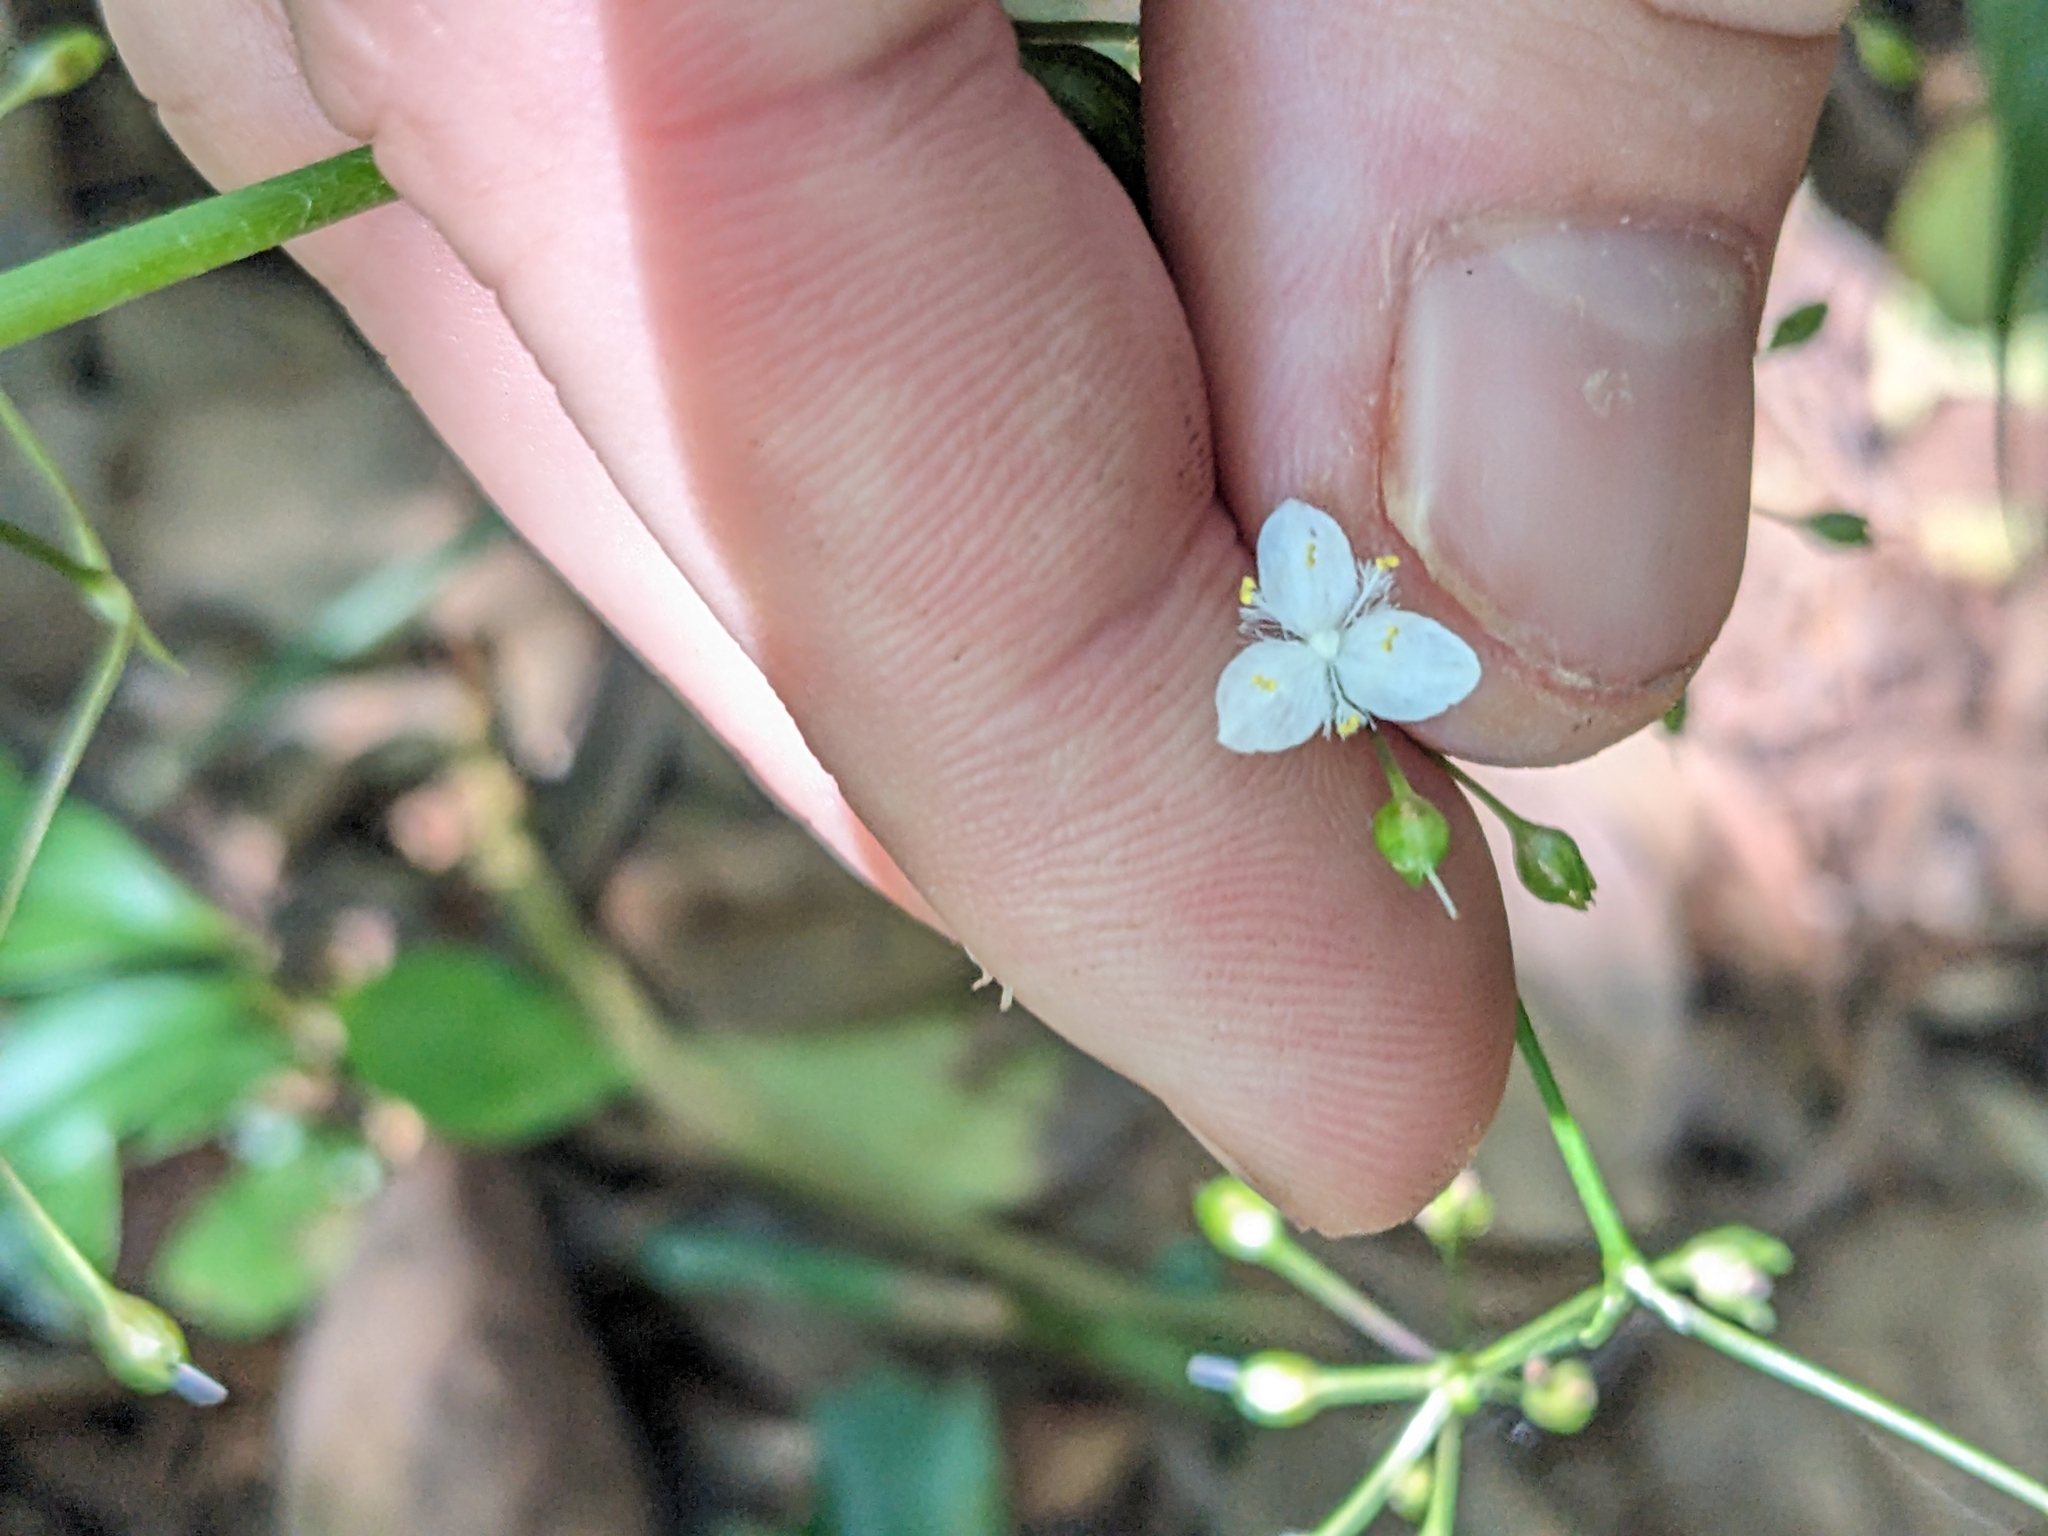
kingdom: Plantae
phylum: Tracheophyta
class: Liliopsida
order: Commelinales
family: Commelinaceae
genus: Gibasis
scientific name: Gibasis pellucida
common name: Dotted bridalveil
